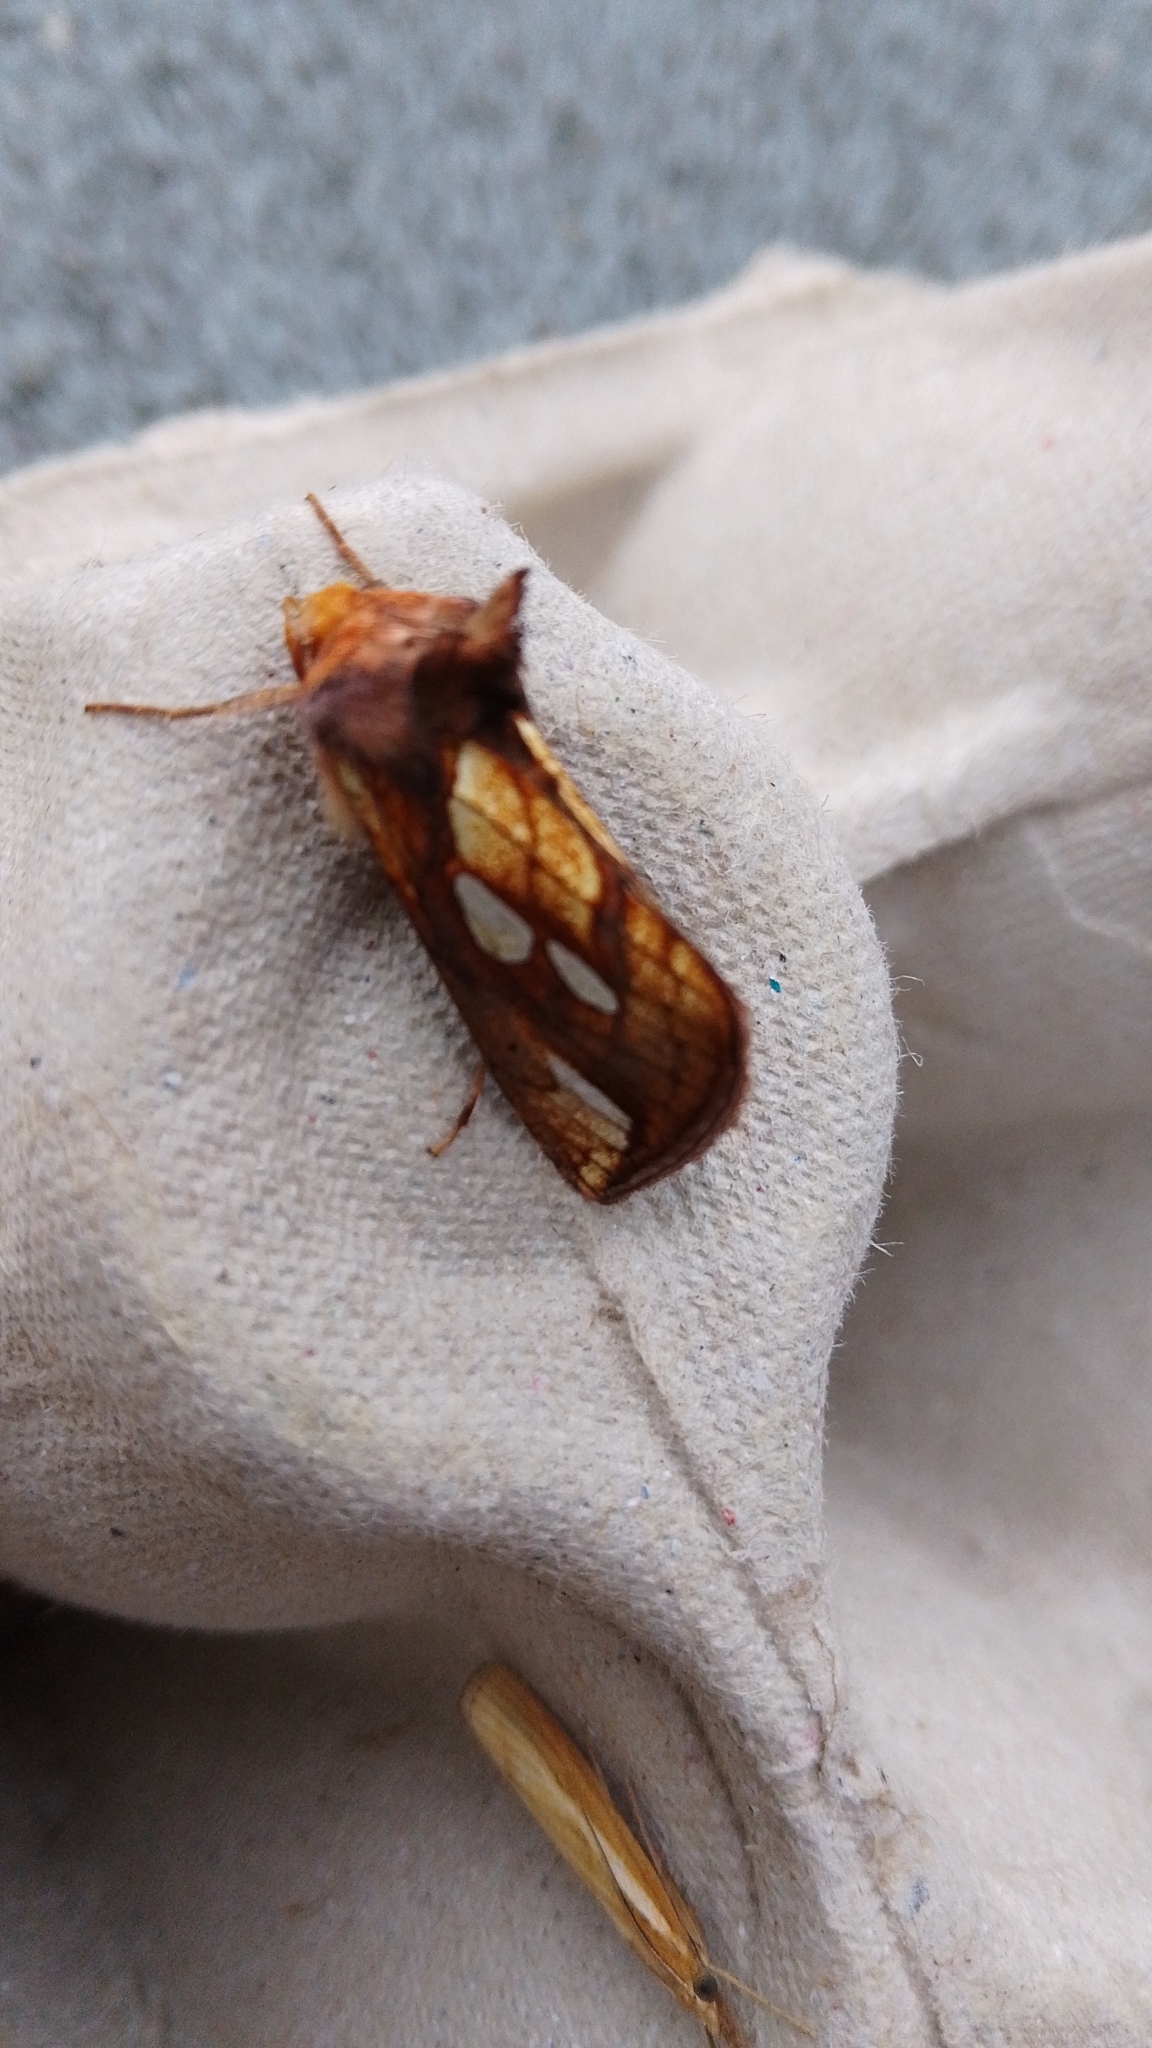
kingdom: Animalia
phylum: Arthropoda
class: Insecta
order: Lepidoptera
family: Noctuidae
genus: Plusia
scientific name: Plusia festucae
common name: Gold spot
